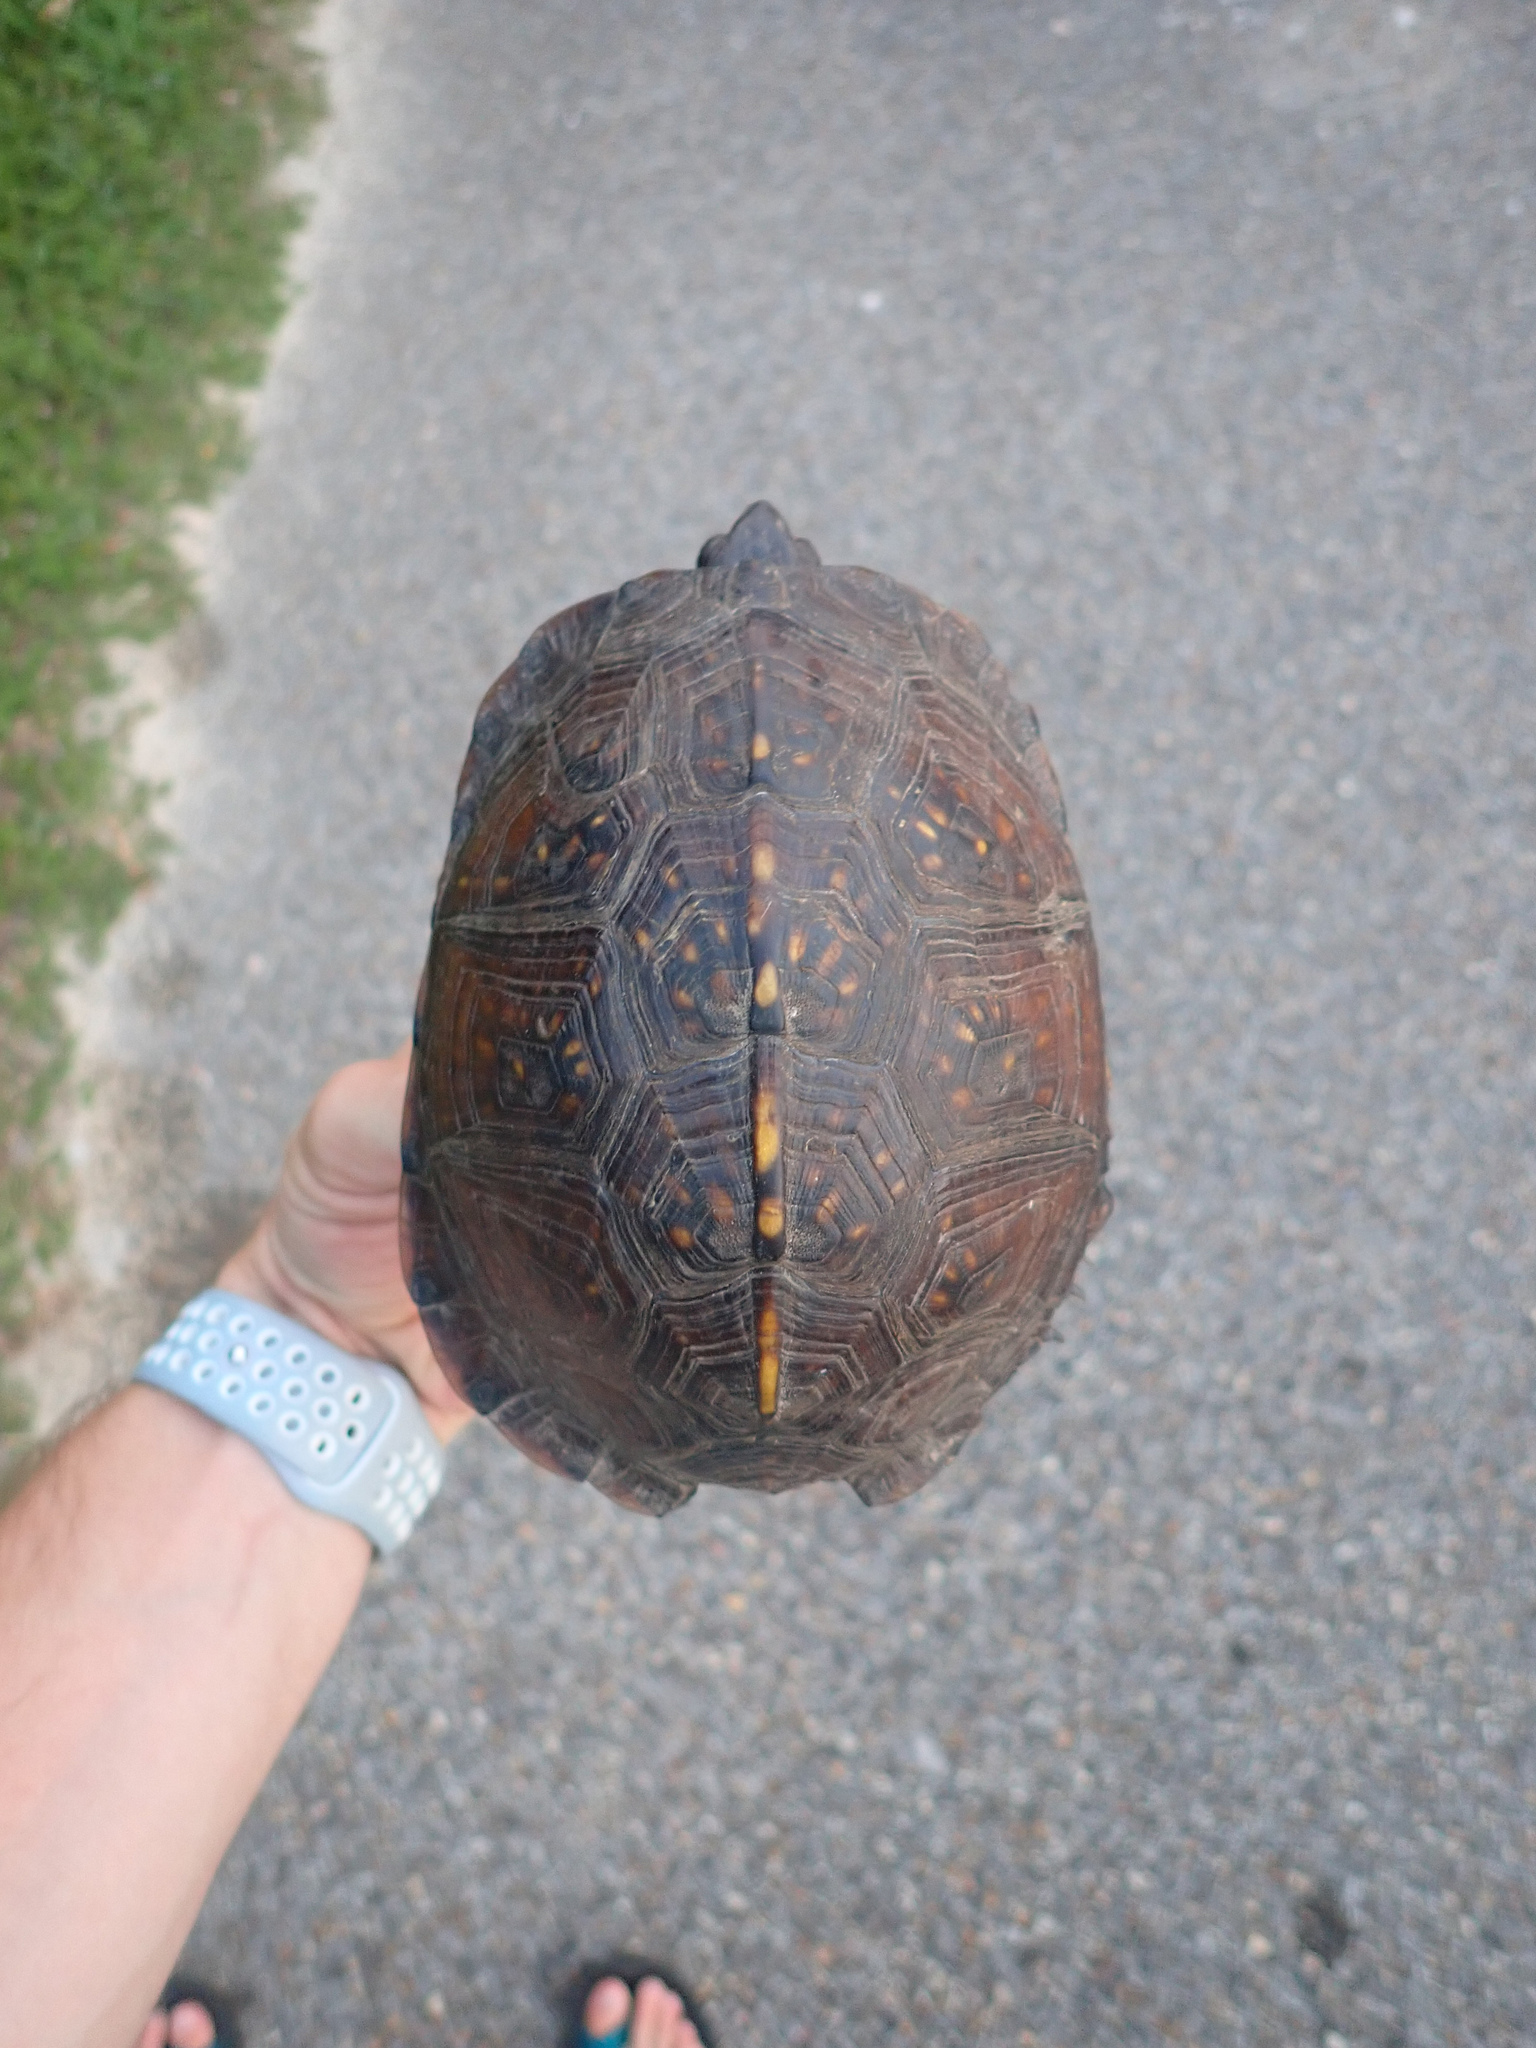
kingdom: Animalia
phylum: Chordata
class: Testudines
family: Emydidae
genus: Terrapene
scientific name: Terrapene carolina
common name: Common box turtle
